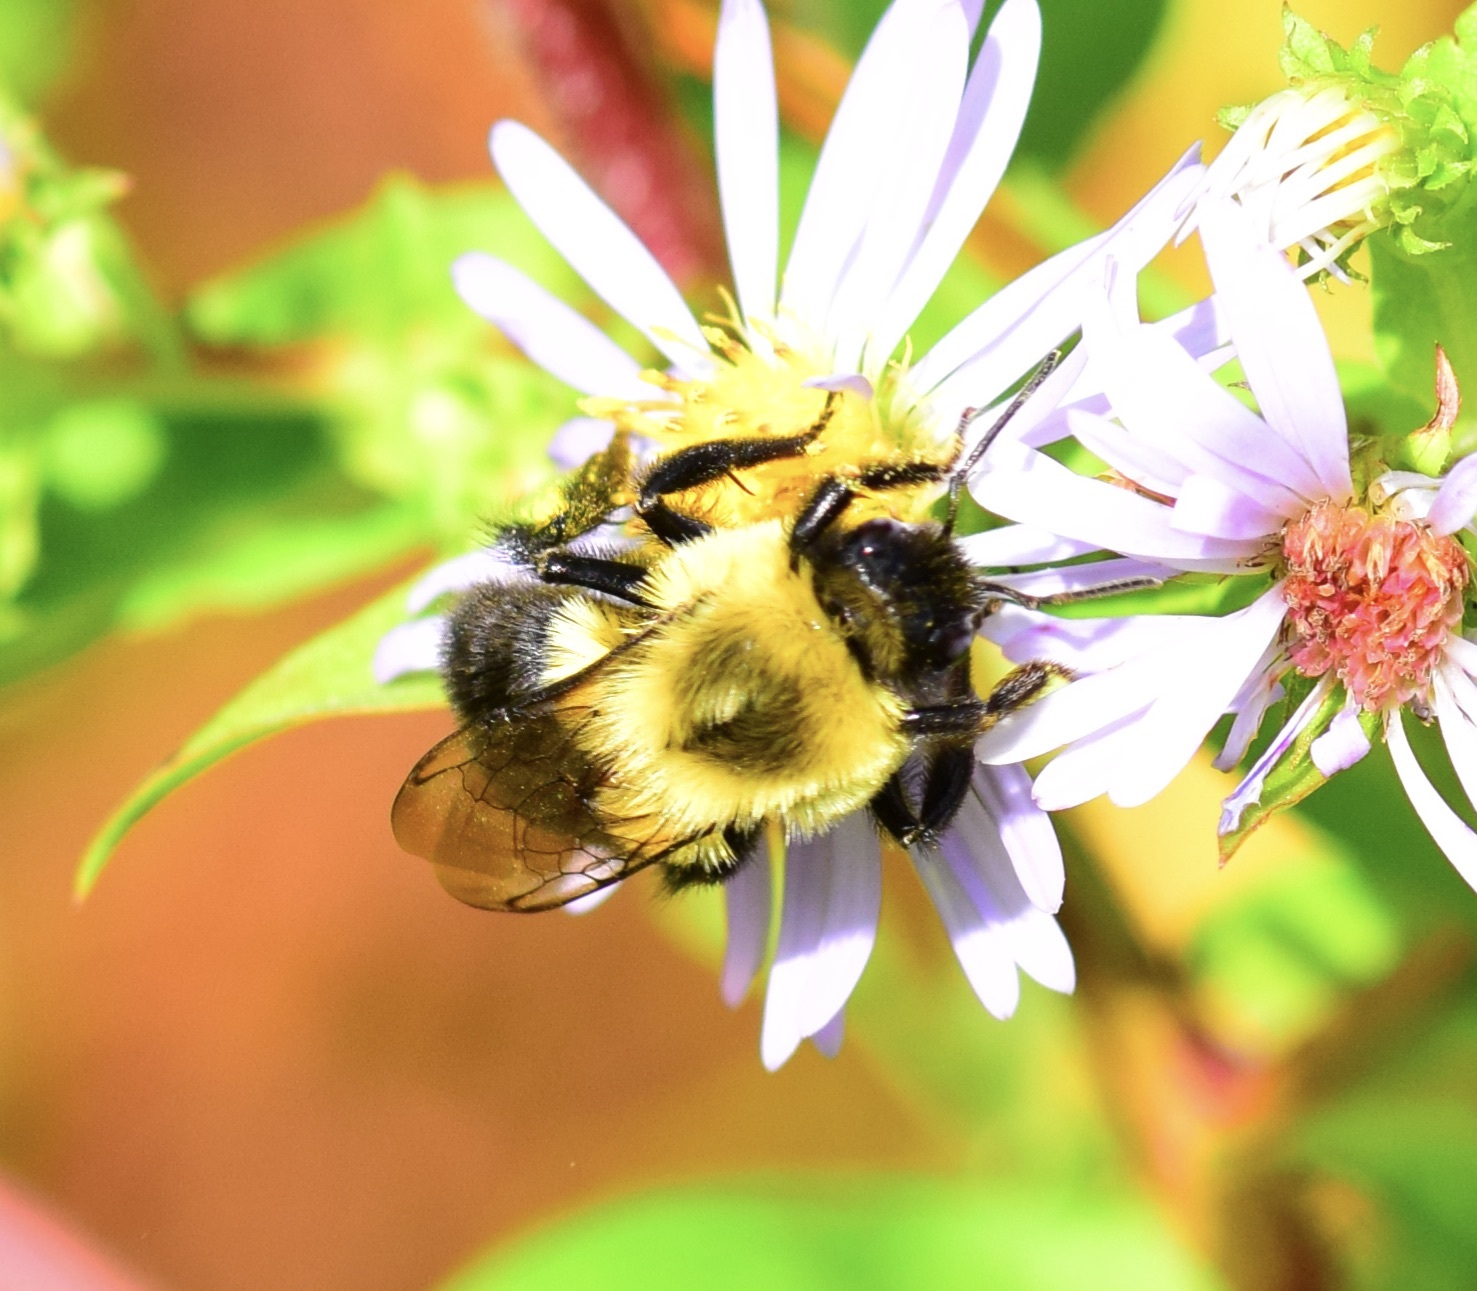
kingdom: Animalia
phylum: Arthropoda
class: Insecta
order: Hymenoptera
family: Apidae
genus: Bombus
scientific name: Bombus impatiens
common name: Common eastern bumble bee
